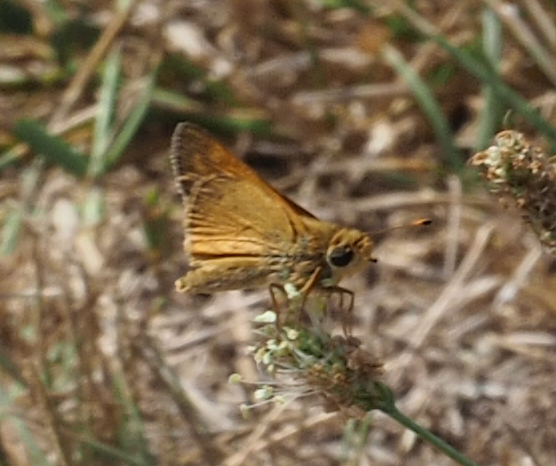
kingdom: Animalia
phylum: Arthropoda
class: Insecta
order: Lepidoptera
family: Hesperiidae
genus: Atalopedes
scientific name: Atalopedes
